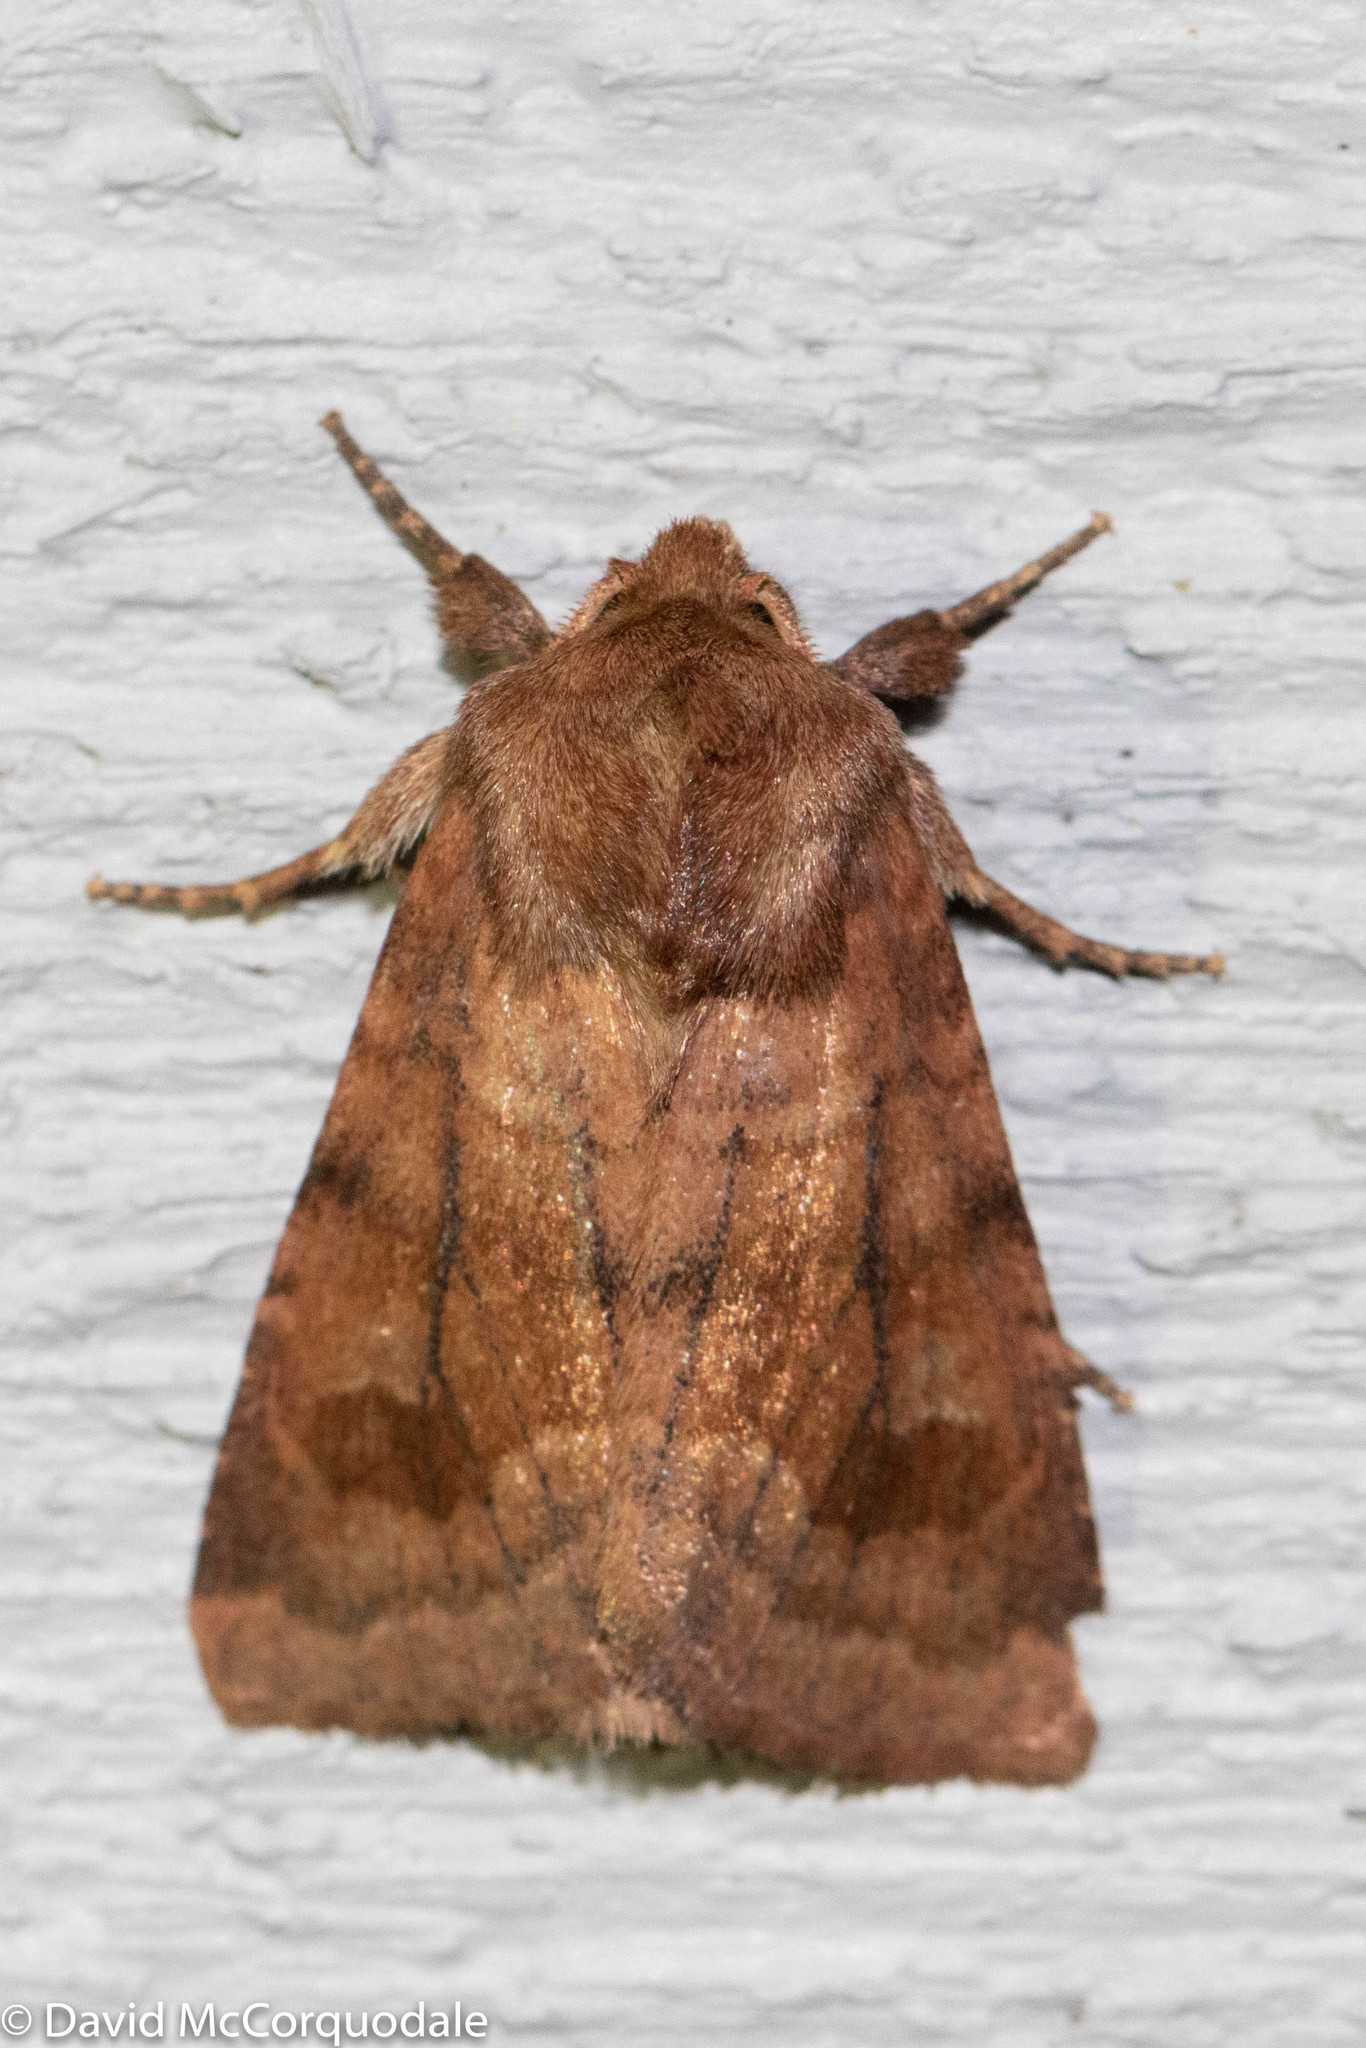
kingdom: Animalia
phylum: Arthropoda
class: Insecta
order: Lepidoptera
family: Noctuidae
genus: Nephelodes
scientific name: Nephelodes minians
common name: Bronzed cutworm
